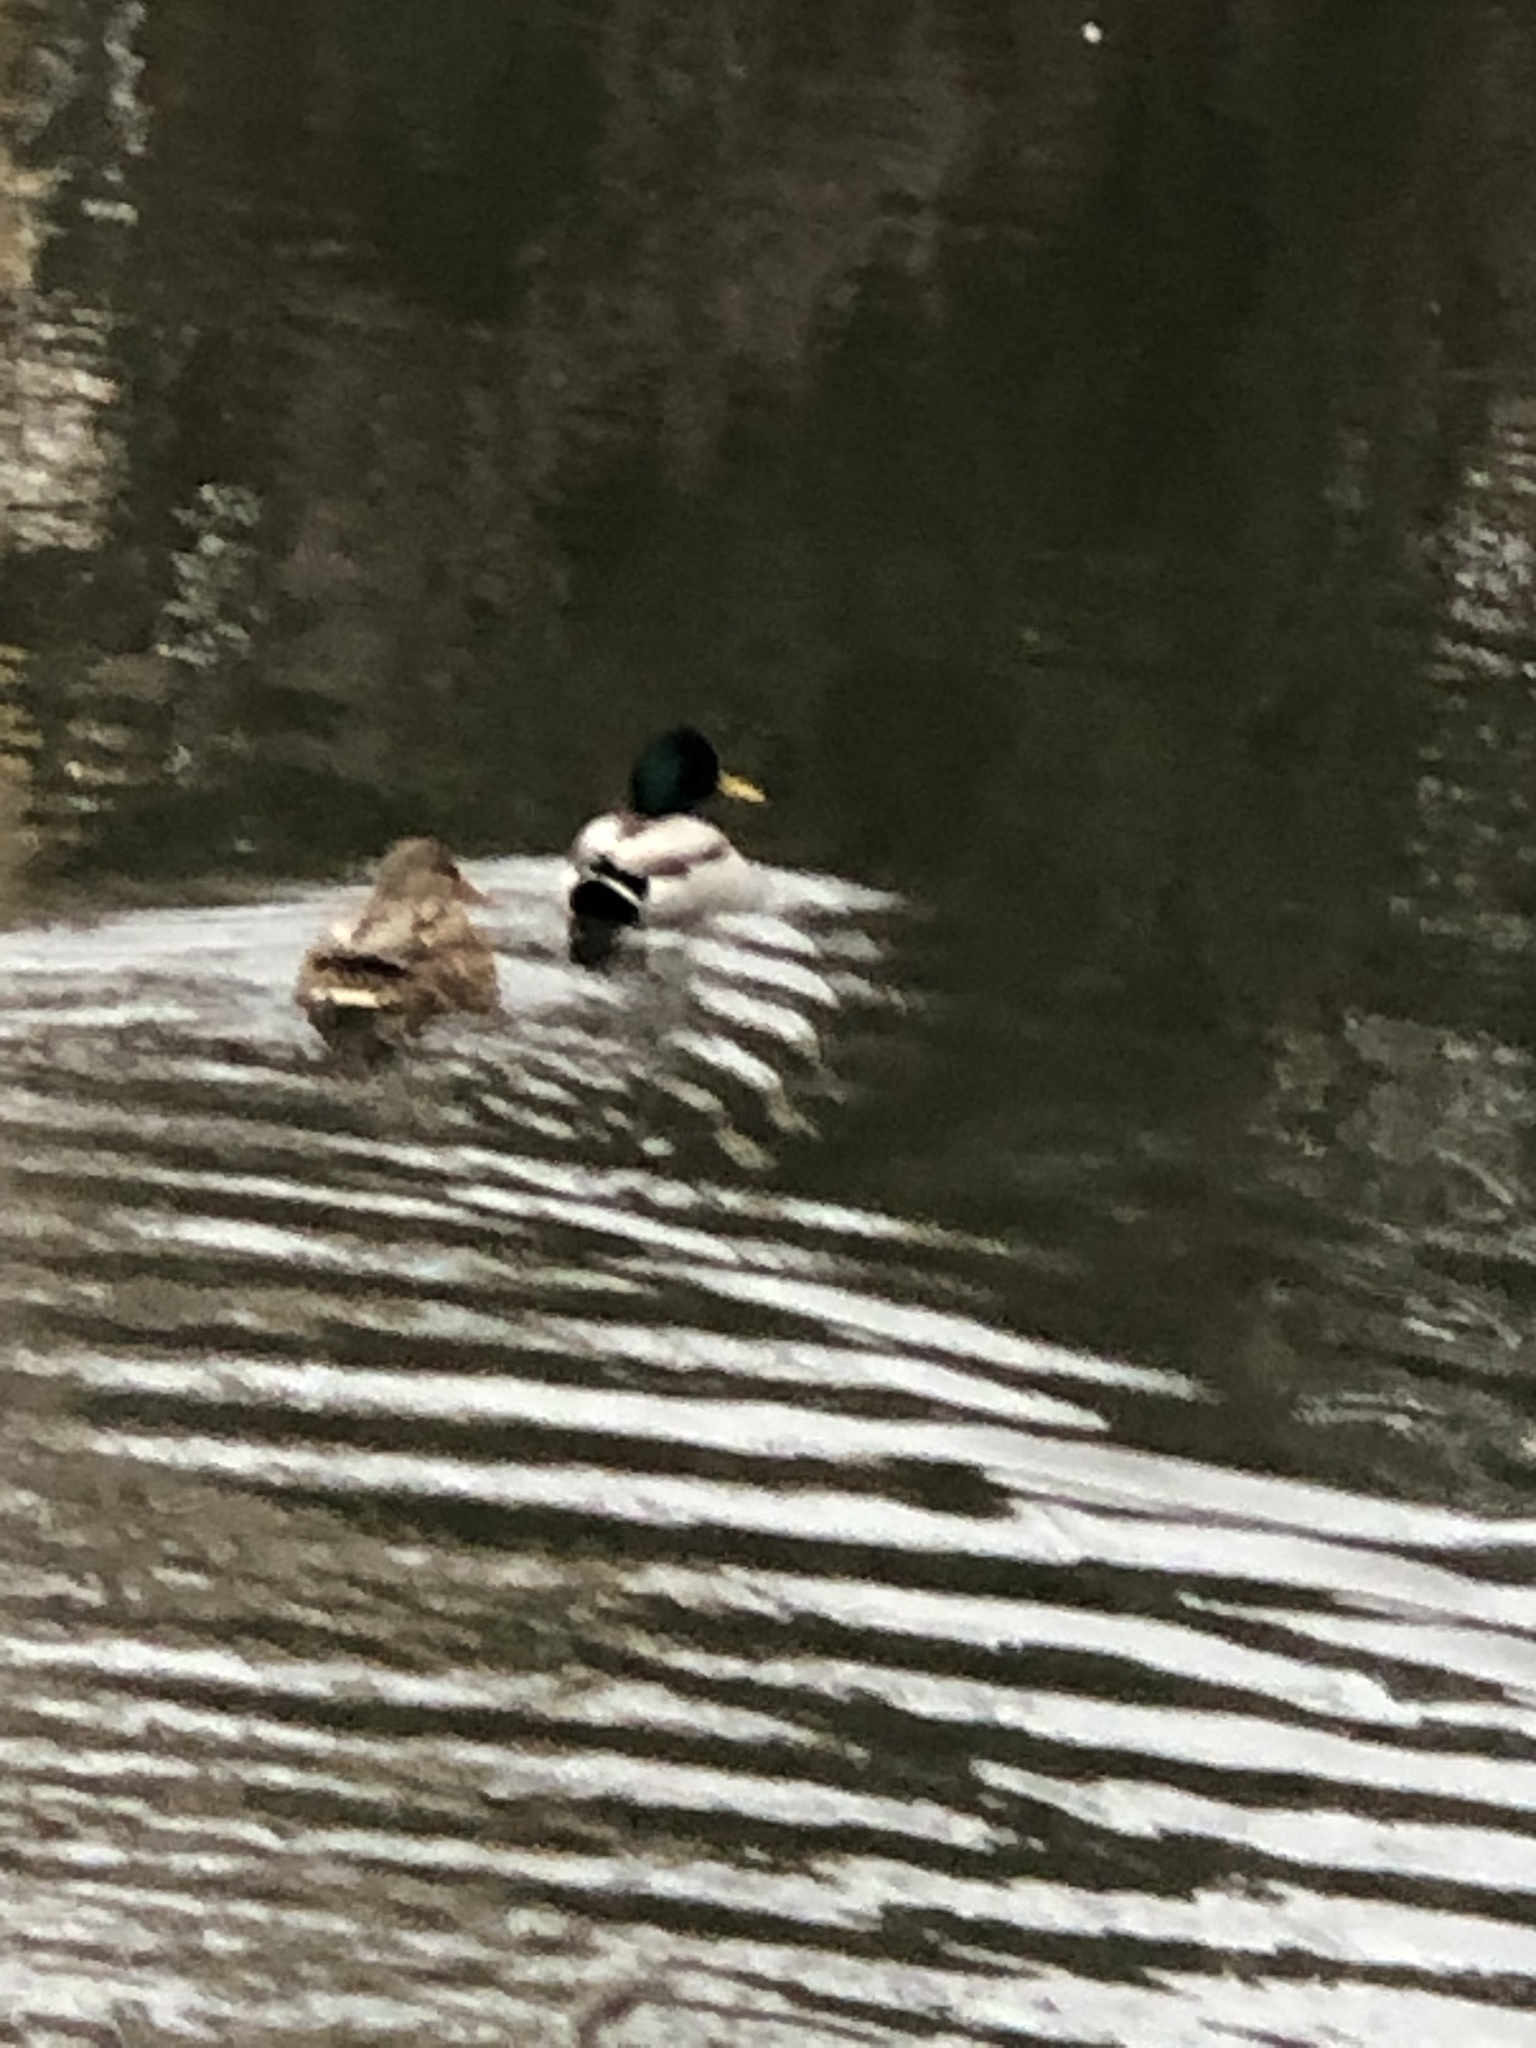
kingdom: Animalia
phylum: Chordata
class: Aves
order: Anseriformes
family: Anatidae
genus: Anas
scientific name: Anas platyrhynchos
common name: Mallard
